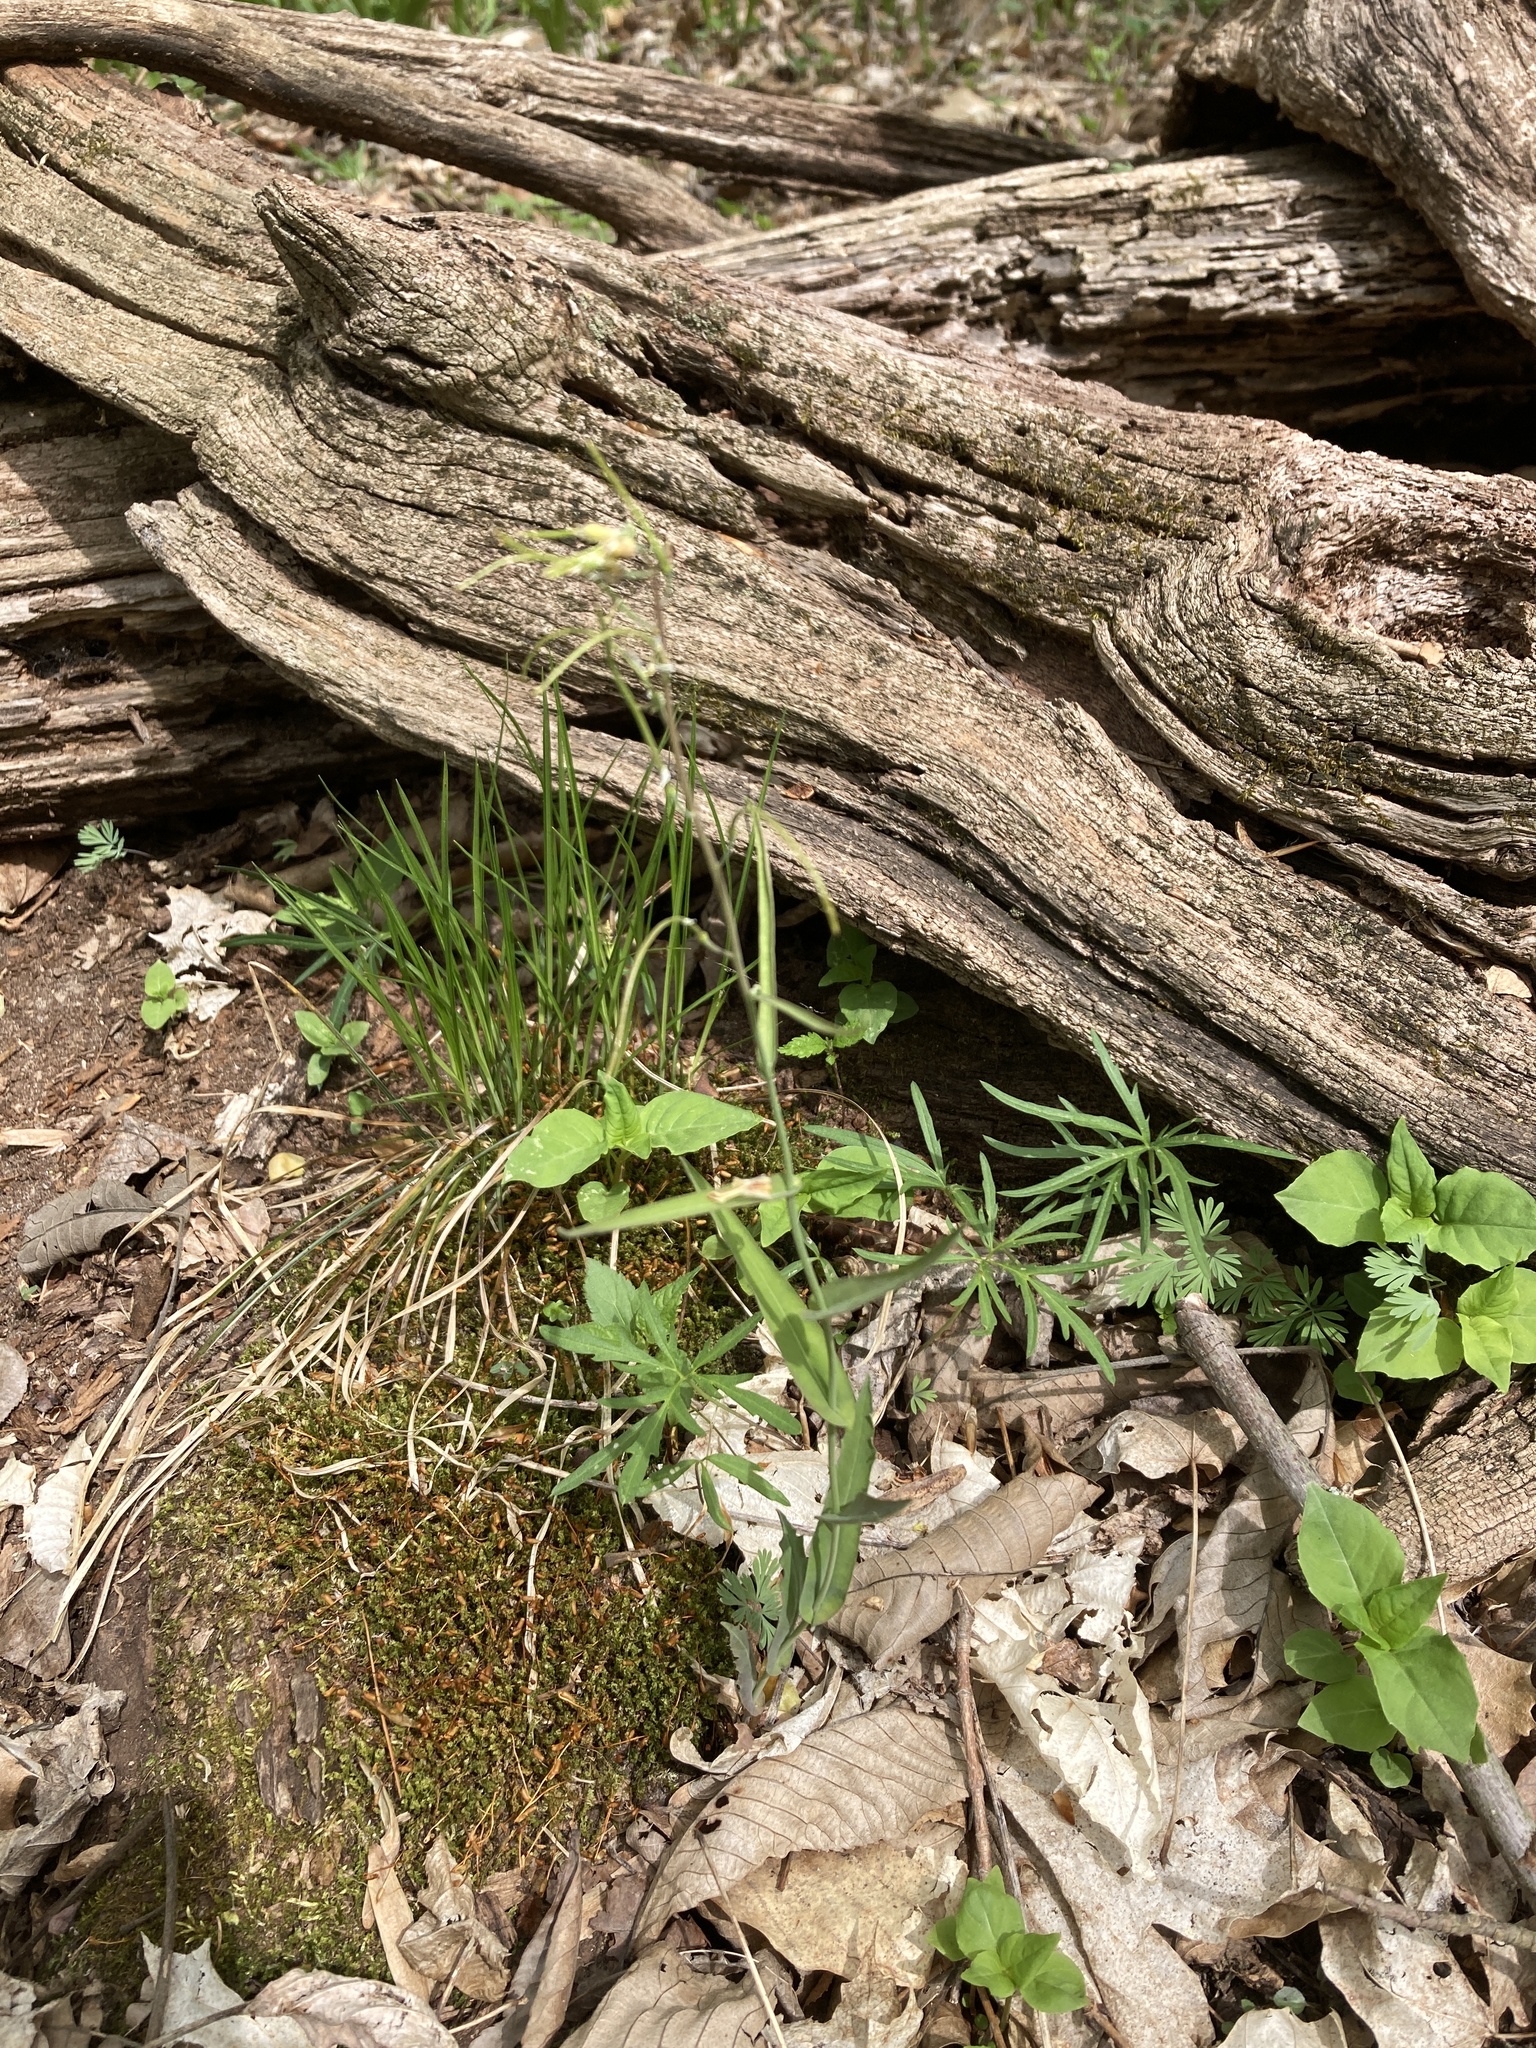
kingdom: Plantae
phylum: Tracheophyta
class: Magnoliopsida
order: Brassicales
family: Brassicaceae
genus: Borodinia
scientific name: Borodinia laevigata
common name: Smooth rockcress
